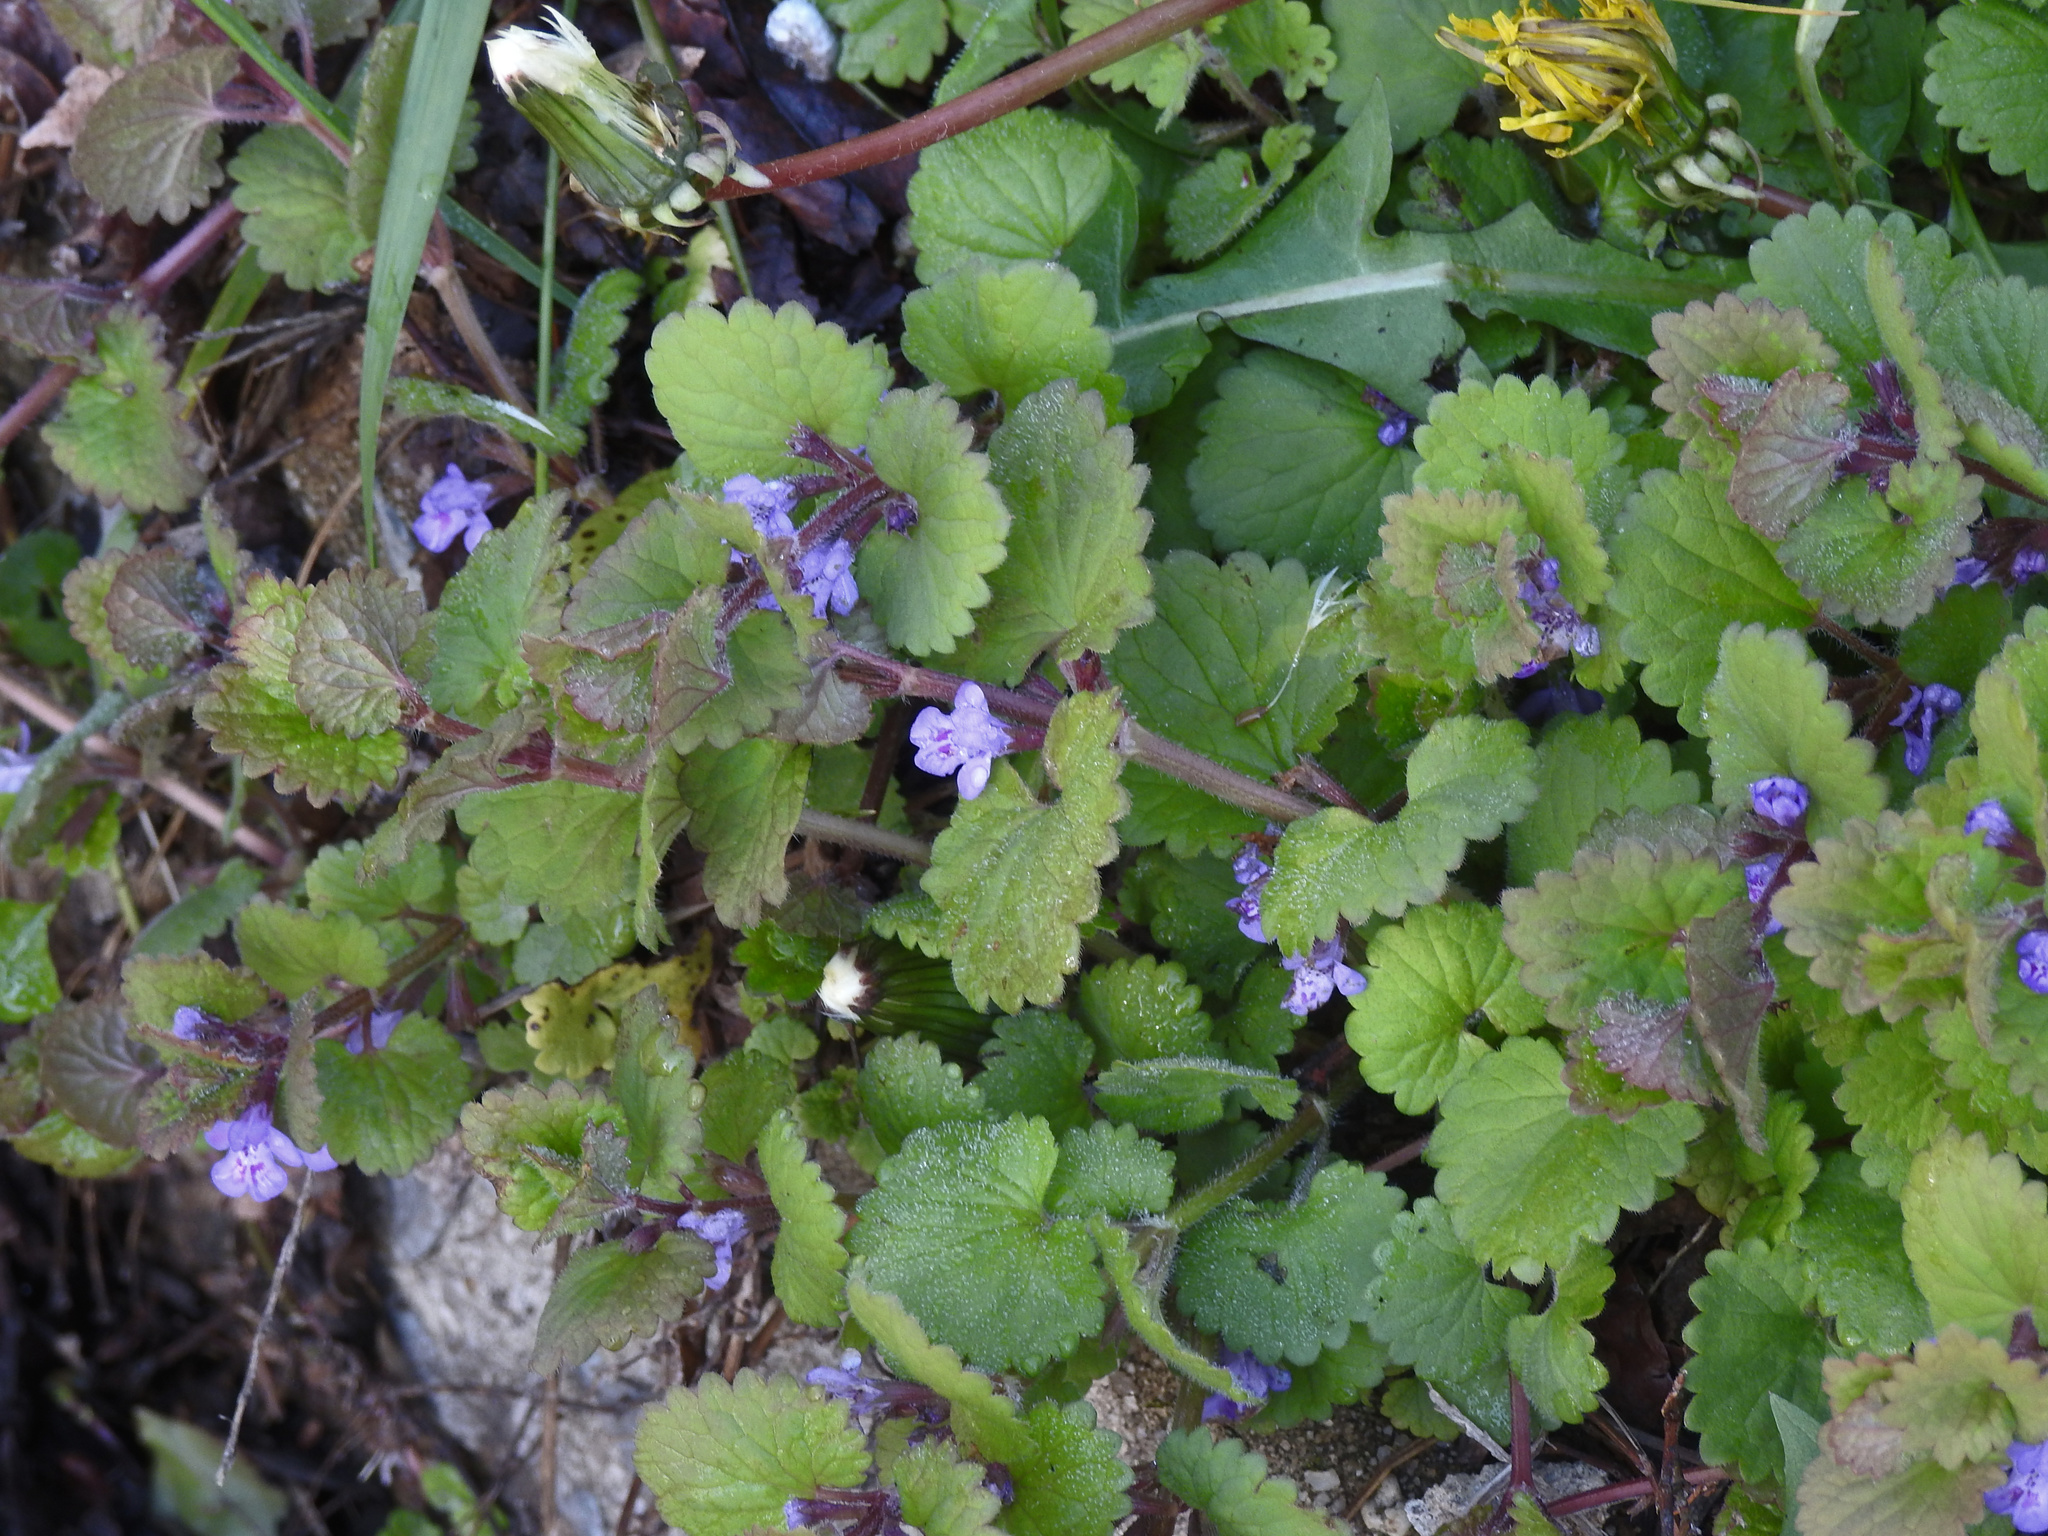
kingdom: Plantae
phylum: Tracheophyta
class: Magnoliopsida
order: Lamiales
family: Lamiaceae
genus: Glechoma
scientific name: Glechoma hederacea
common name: Ground ivy
